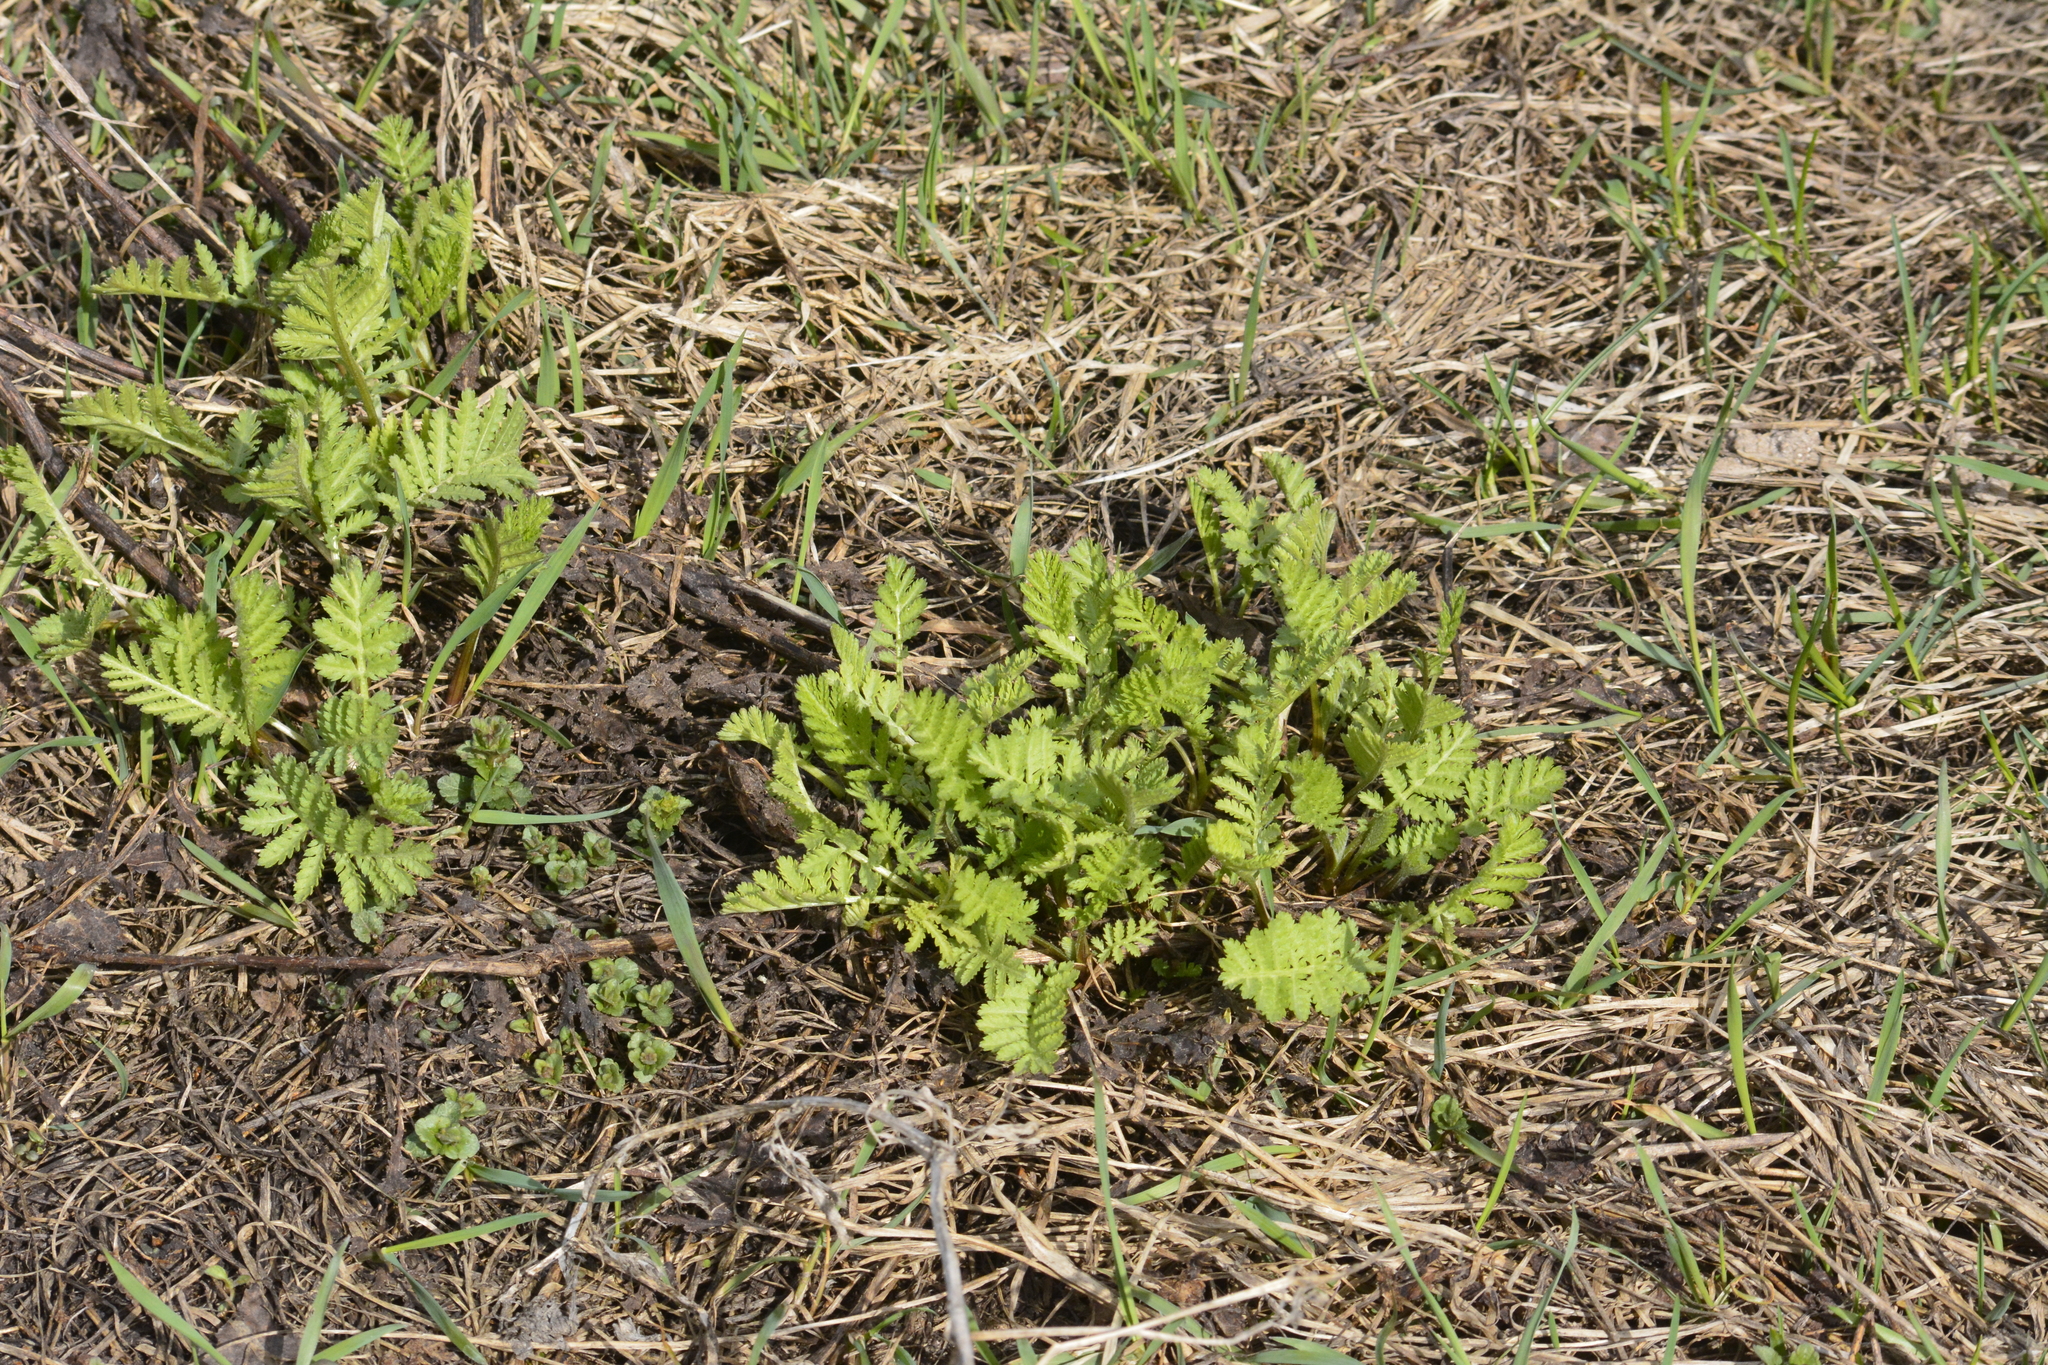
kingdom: Plantae
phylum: Tracheophyta
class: Magnoliopsida
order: Asterales
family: Asteraceae
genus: Tanacetum
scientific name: Tanacetum vulgare
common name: Common tansy
